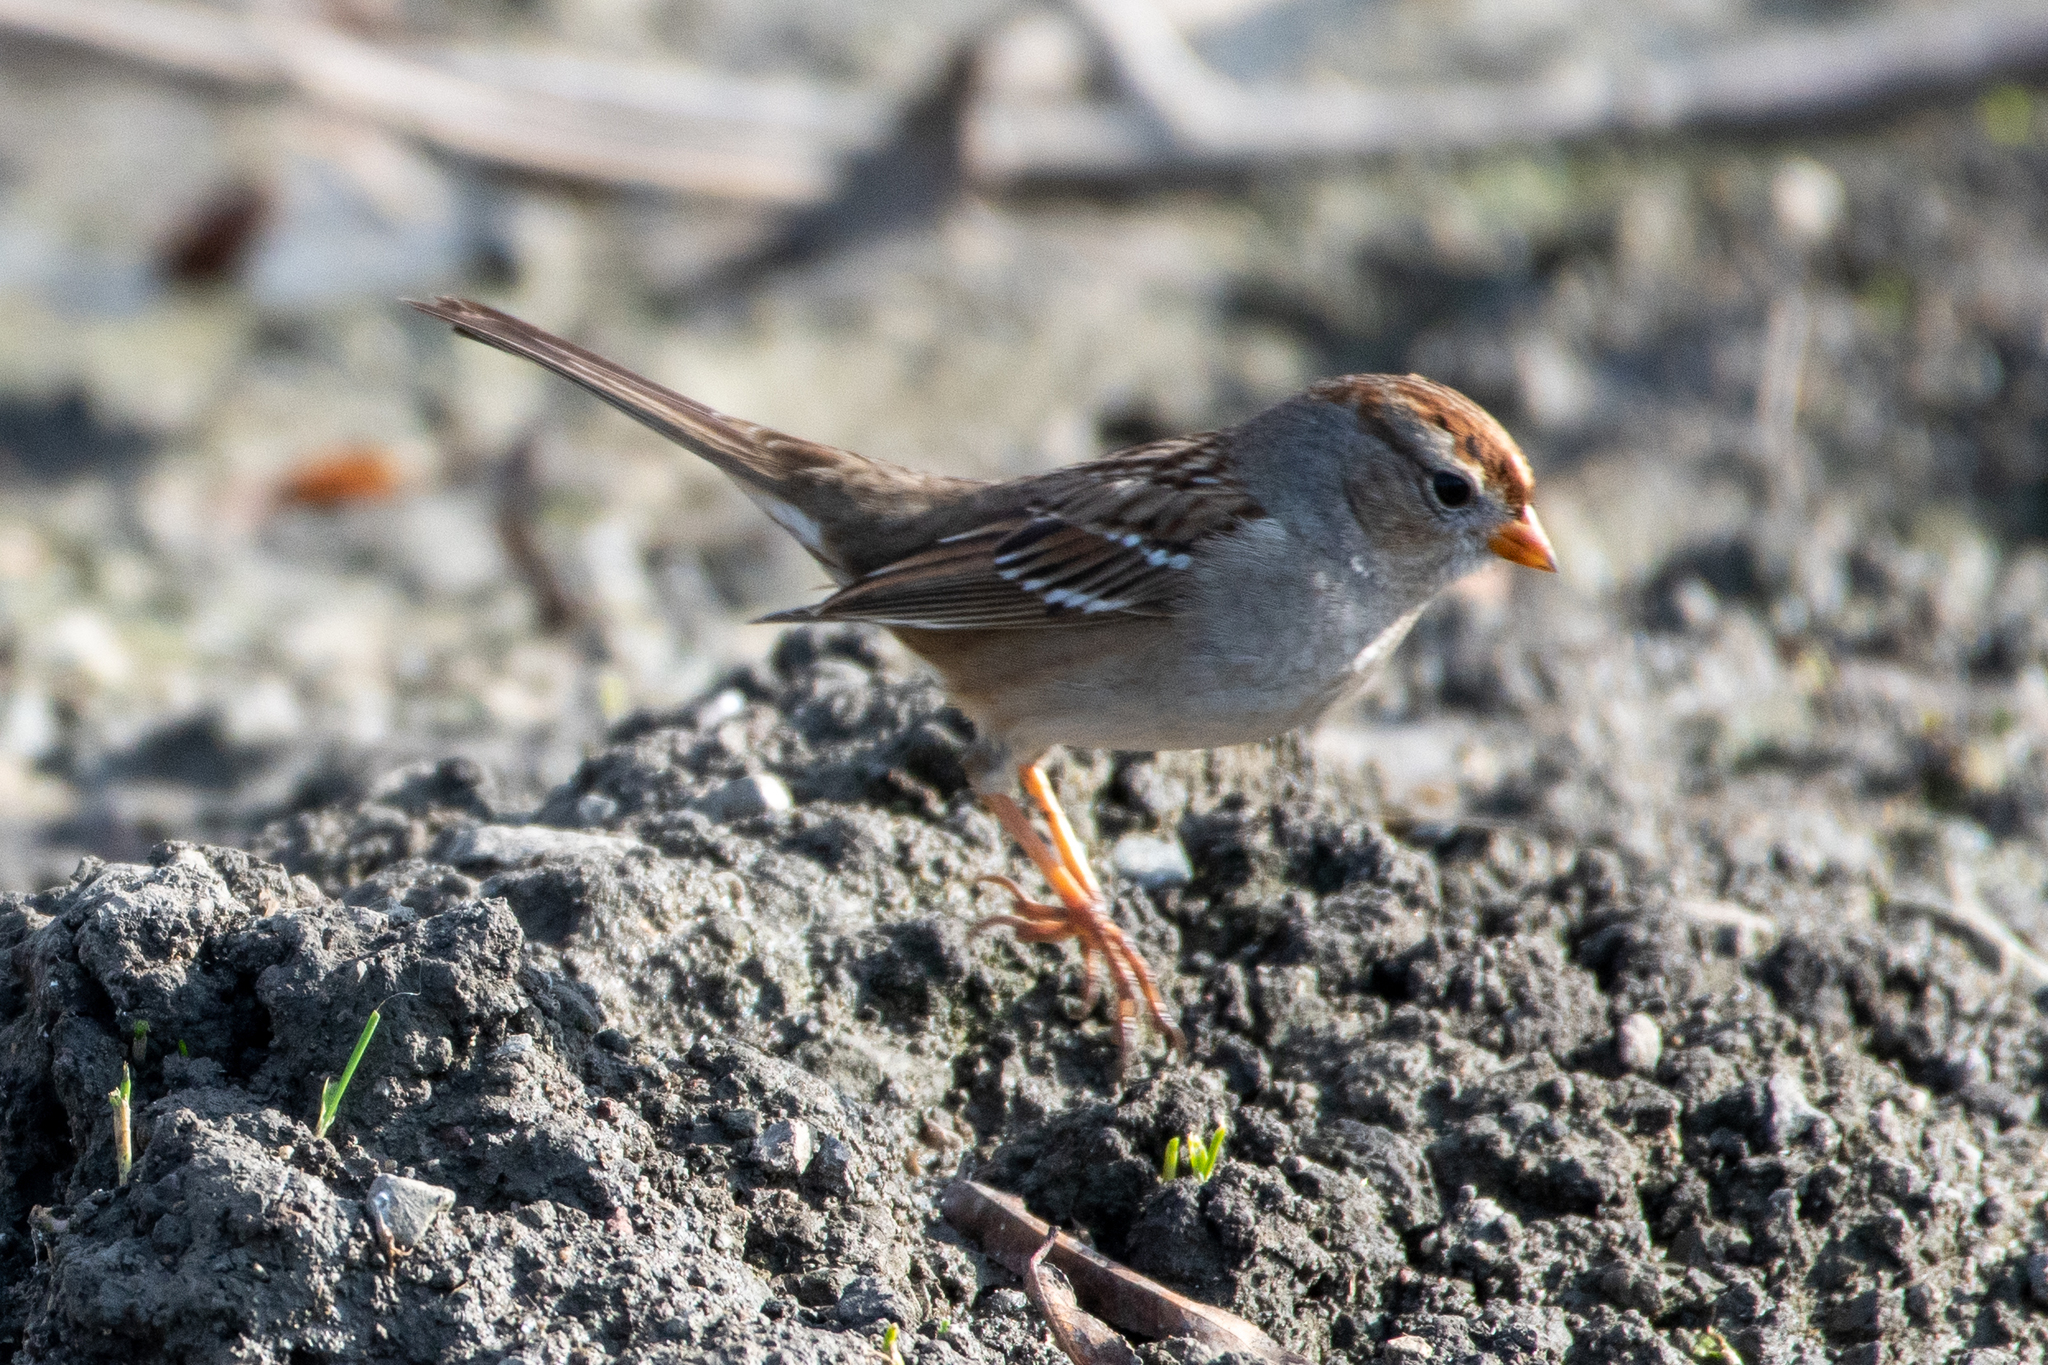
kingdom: Animalia
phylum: Chordata
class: Aves
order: Passeriformes
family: Passerellidae
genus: Zonotrichia
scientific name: Zonotrichia leucophrys
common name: White-crowned sparrow
